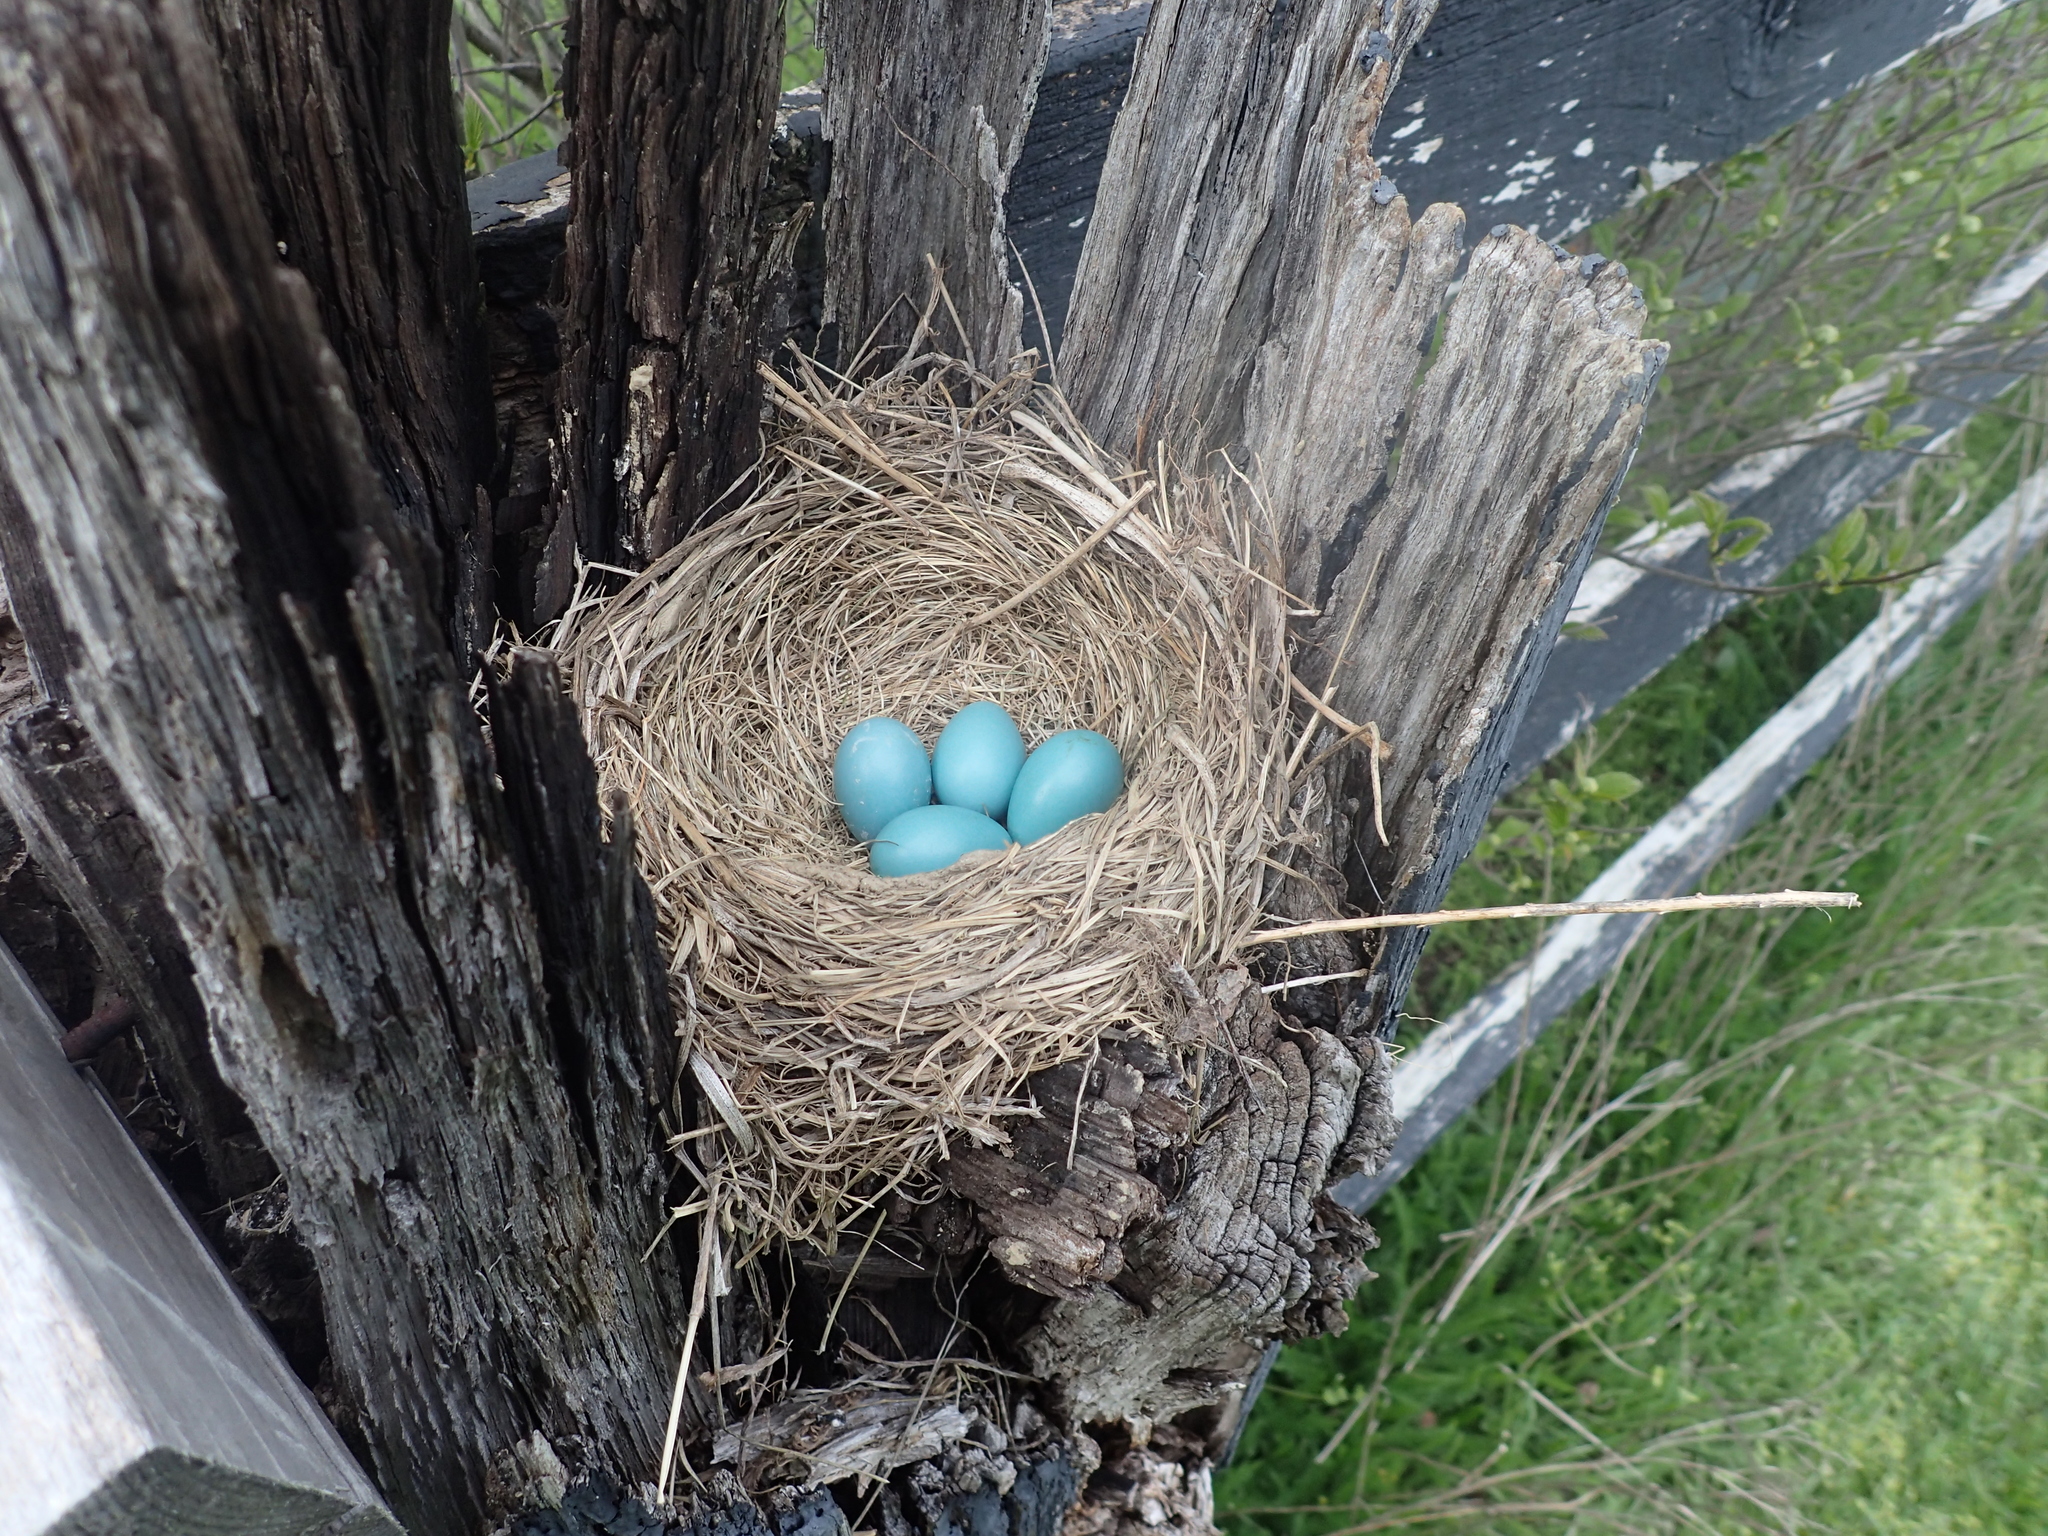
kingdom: Animalia
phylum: Chordata
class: Aves
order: Passeriformes
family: Turdidae
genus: Turdus
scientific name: Turdus migratorius
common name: American robin
